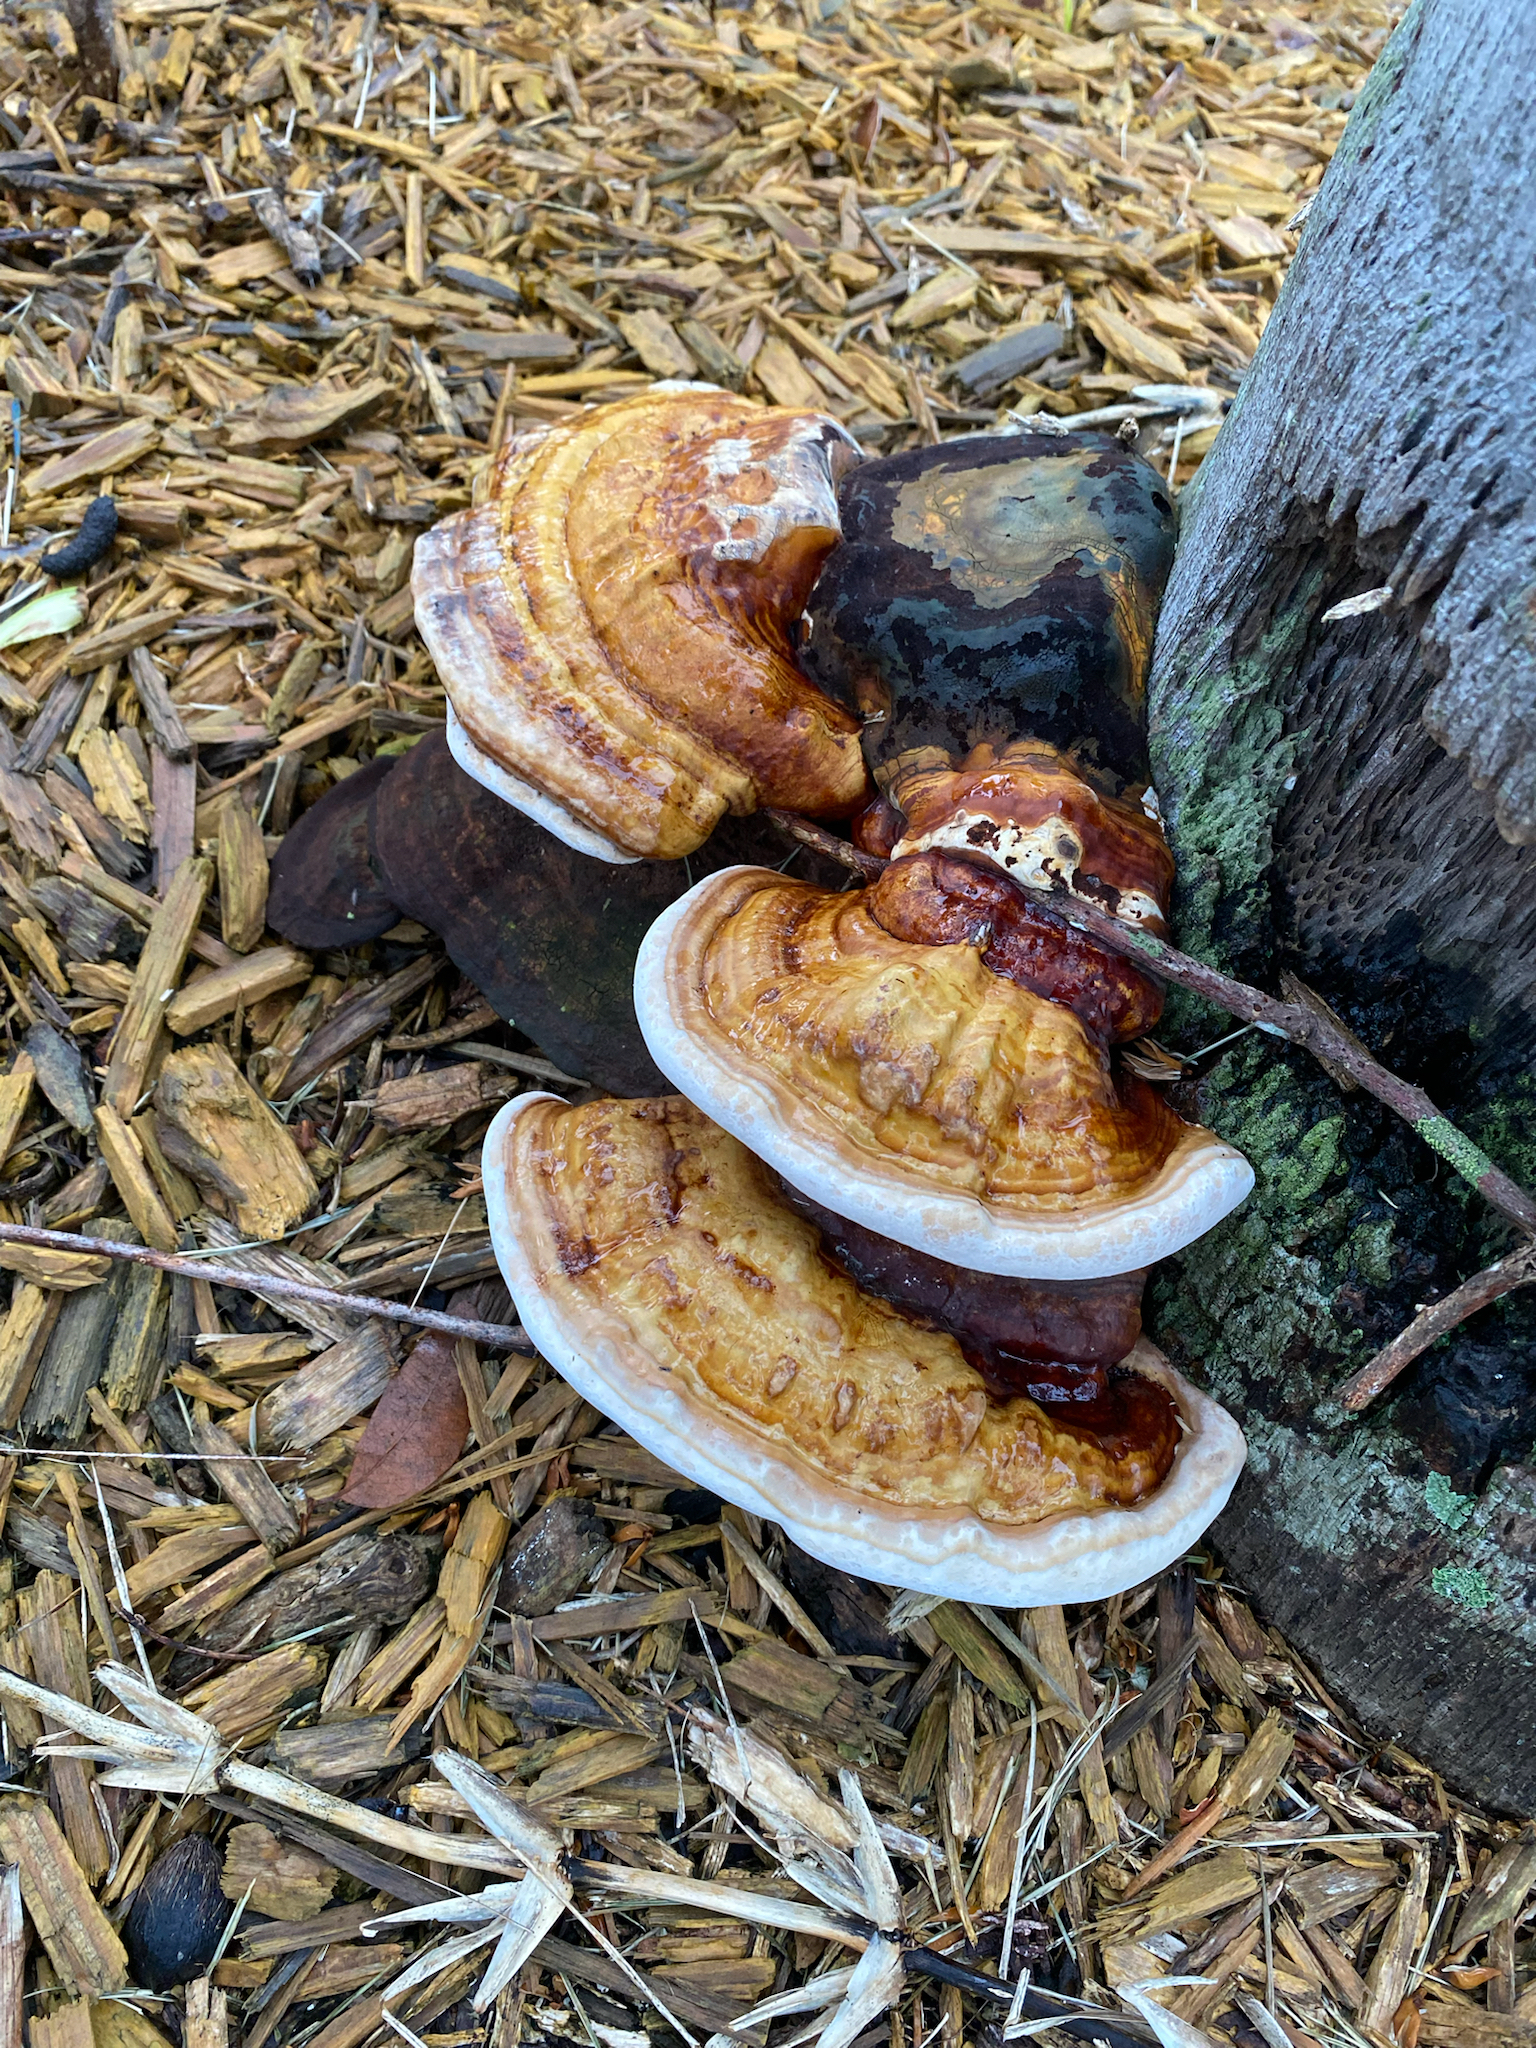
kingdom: Fungi
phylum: Basidiomycota
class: Agaricomycetes
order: Polyporales
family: Polyporaceae
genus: Ganoderma
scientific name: Ganoderma zonatum
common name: Ganoderma butt rot
